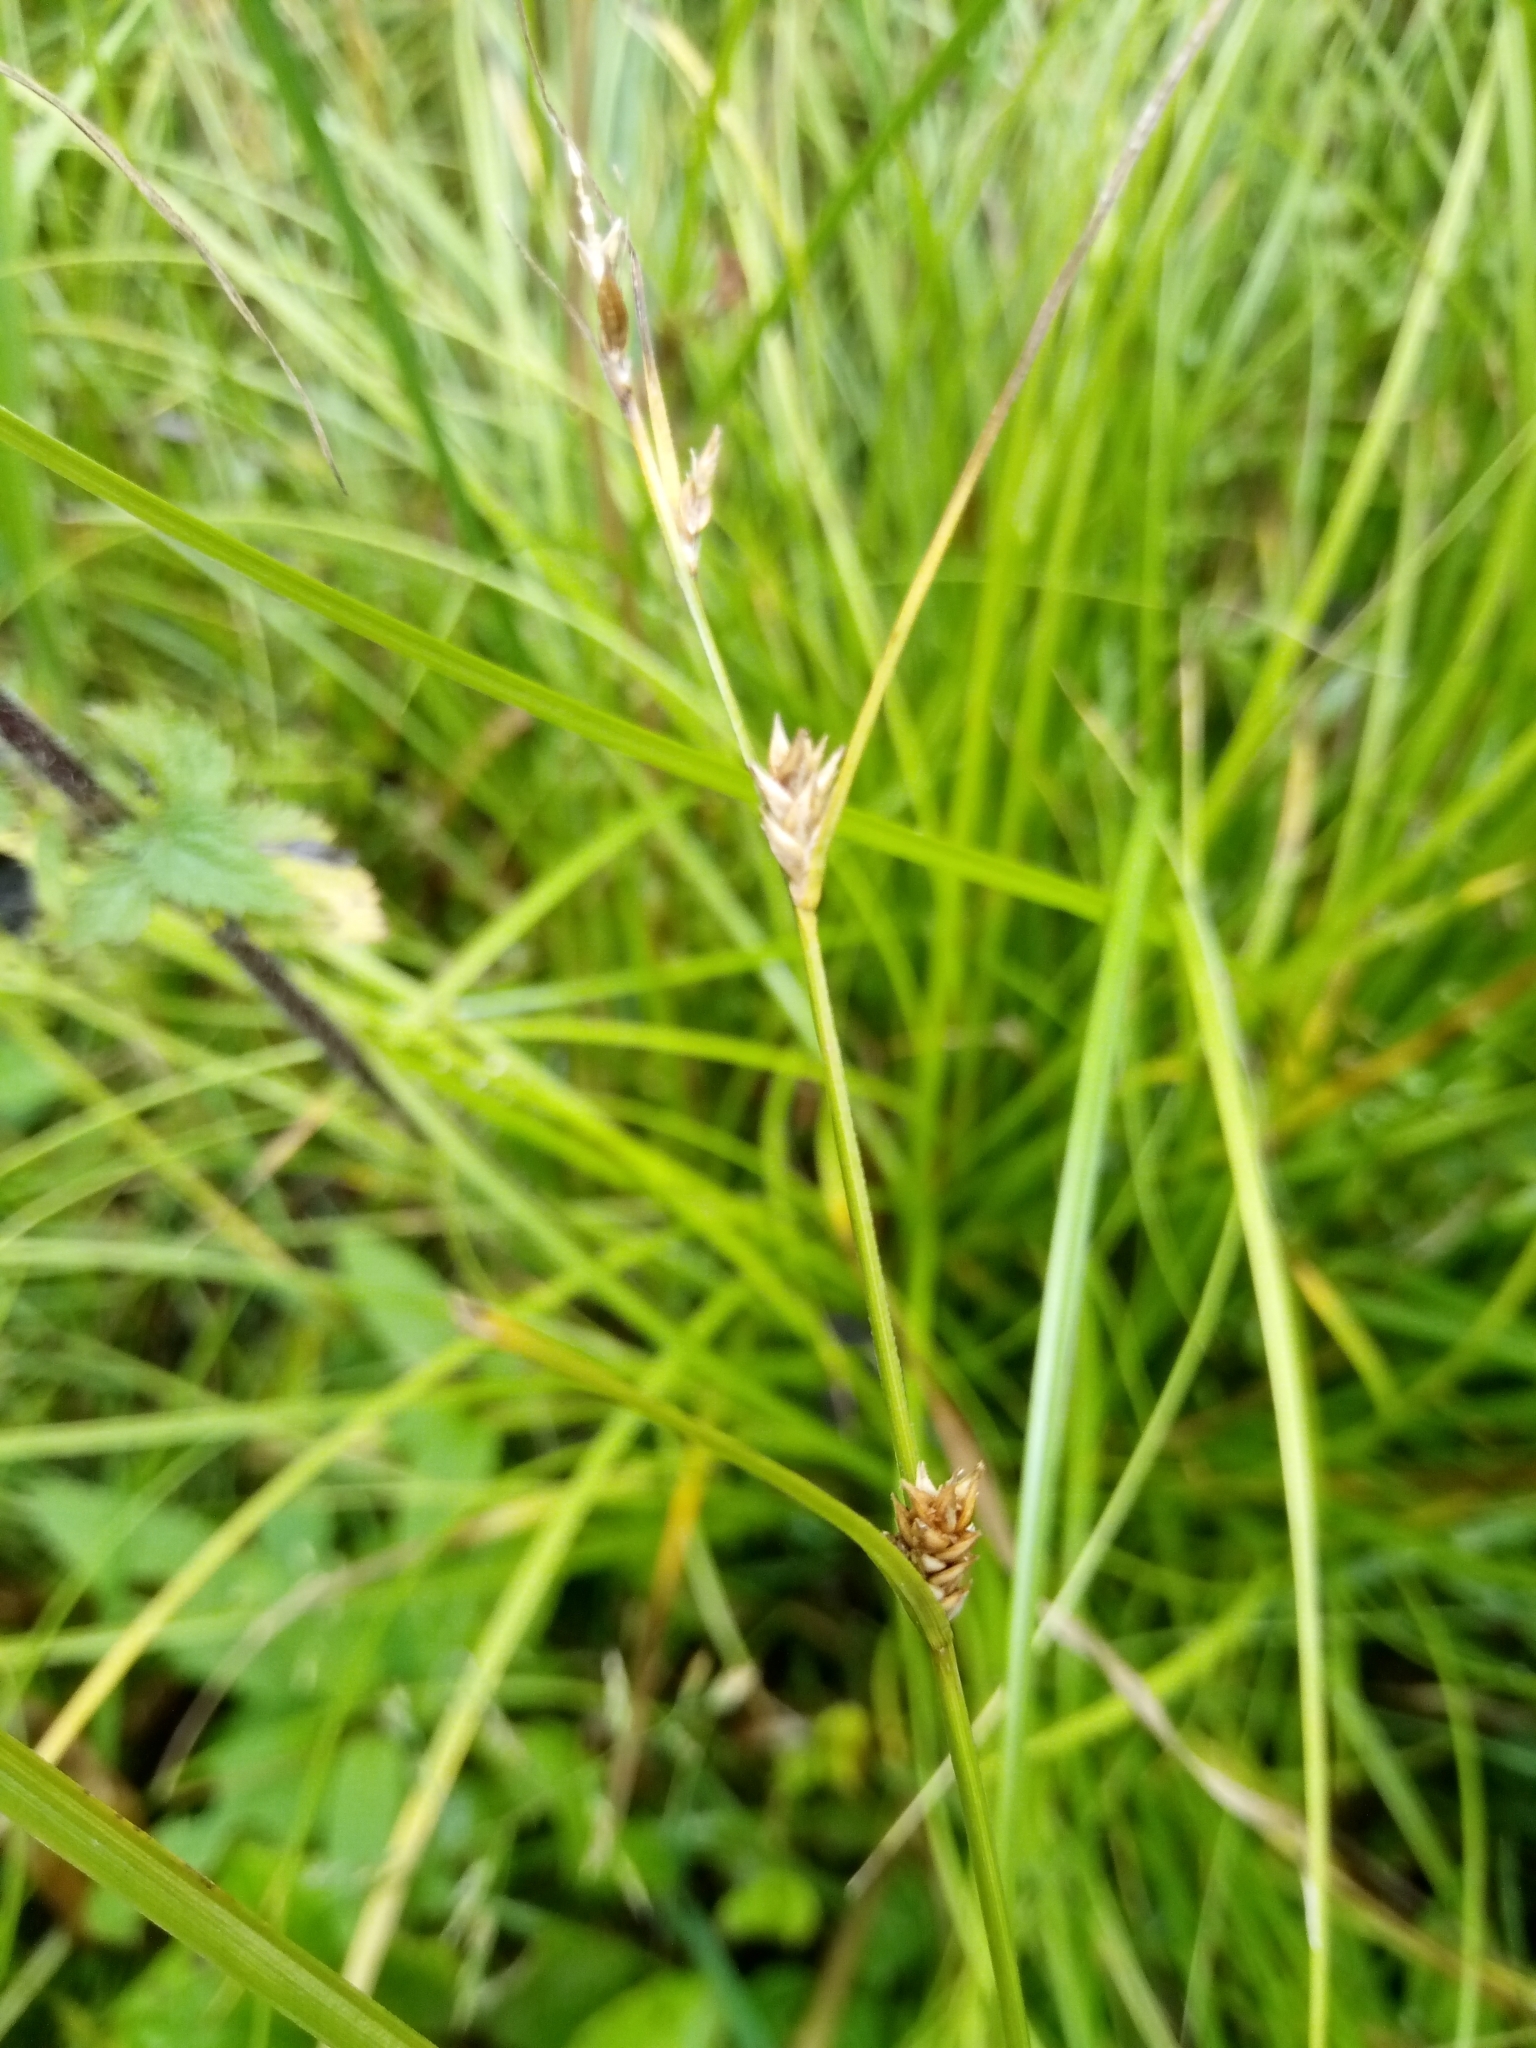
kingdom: Plantae
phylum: Tracheophyta
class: Liliopsida
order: Poales
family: Cyperaceae
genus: Carex
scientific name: Carex remota
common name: Remote sedge
